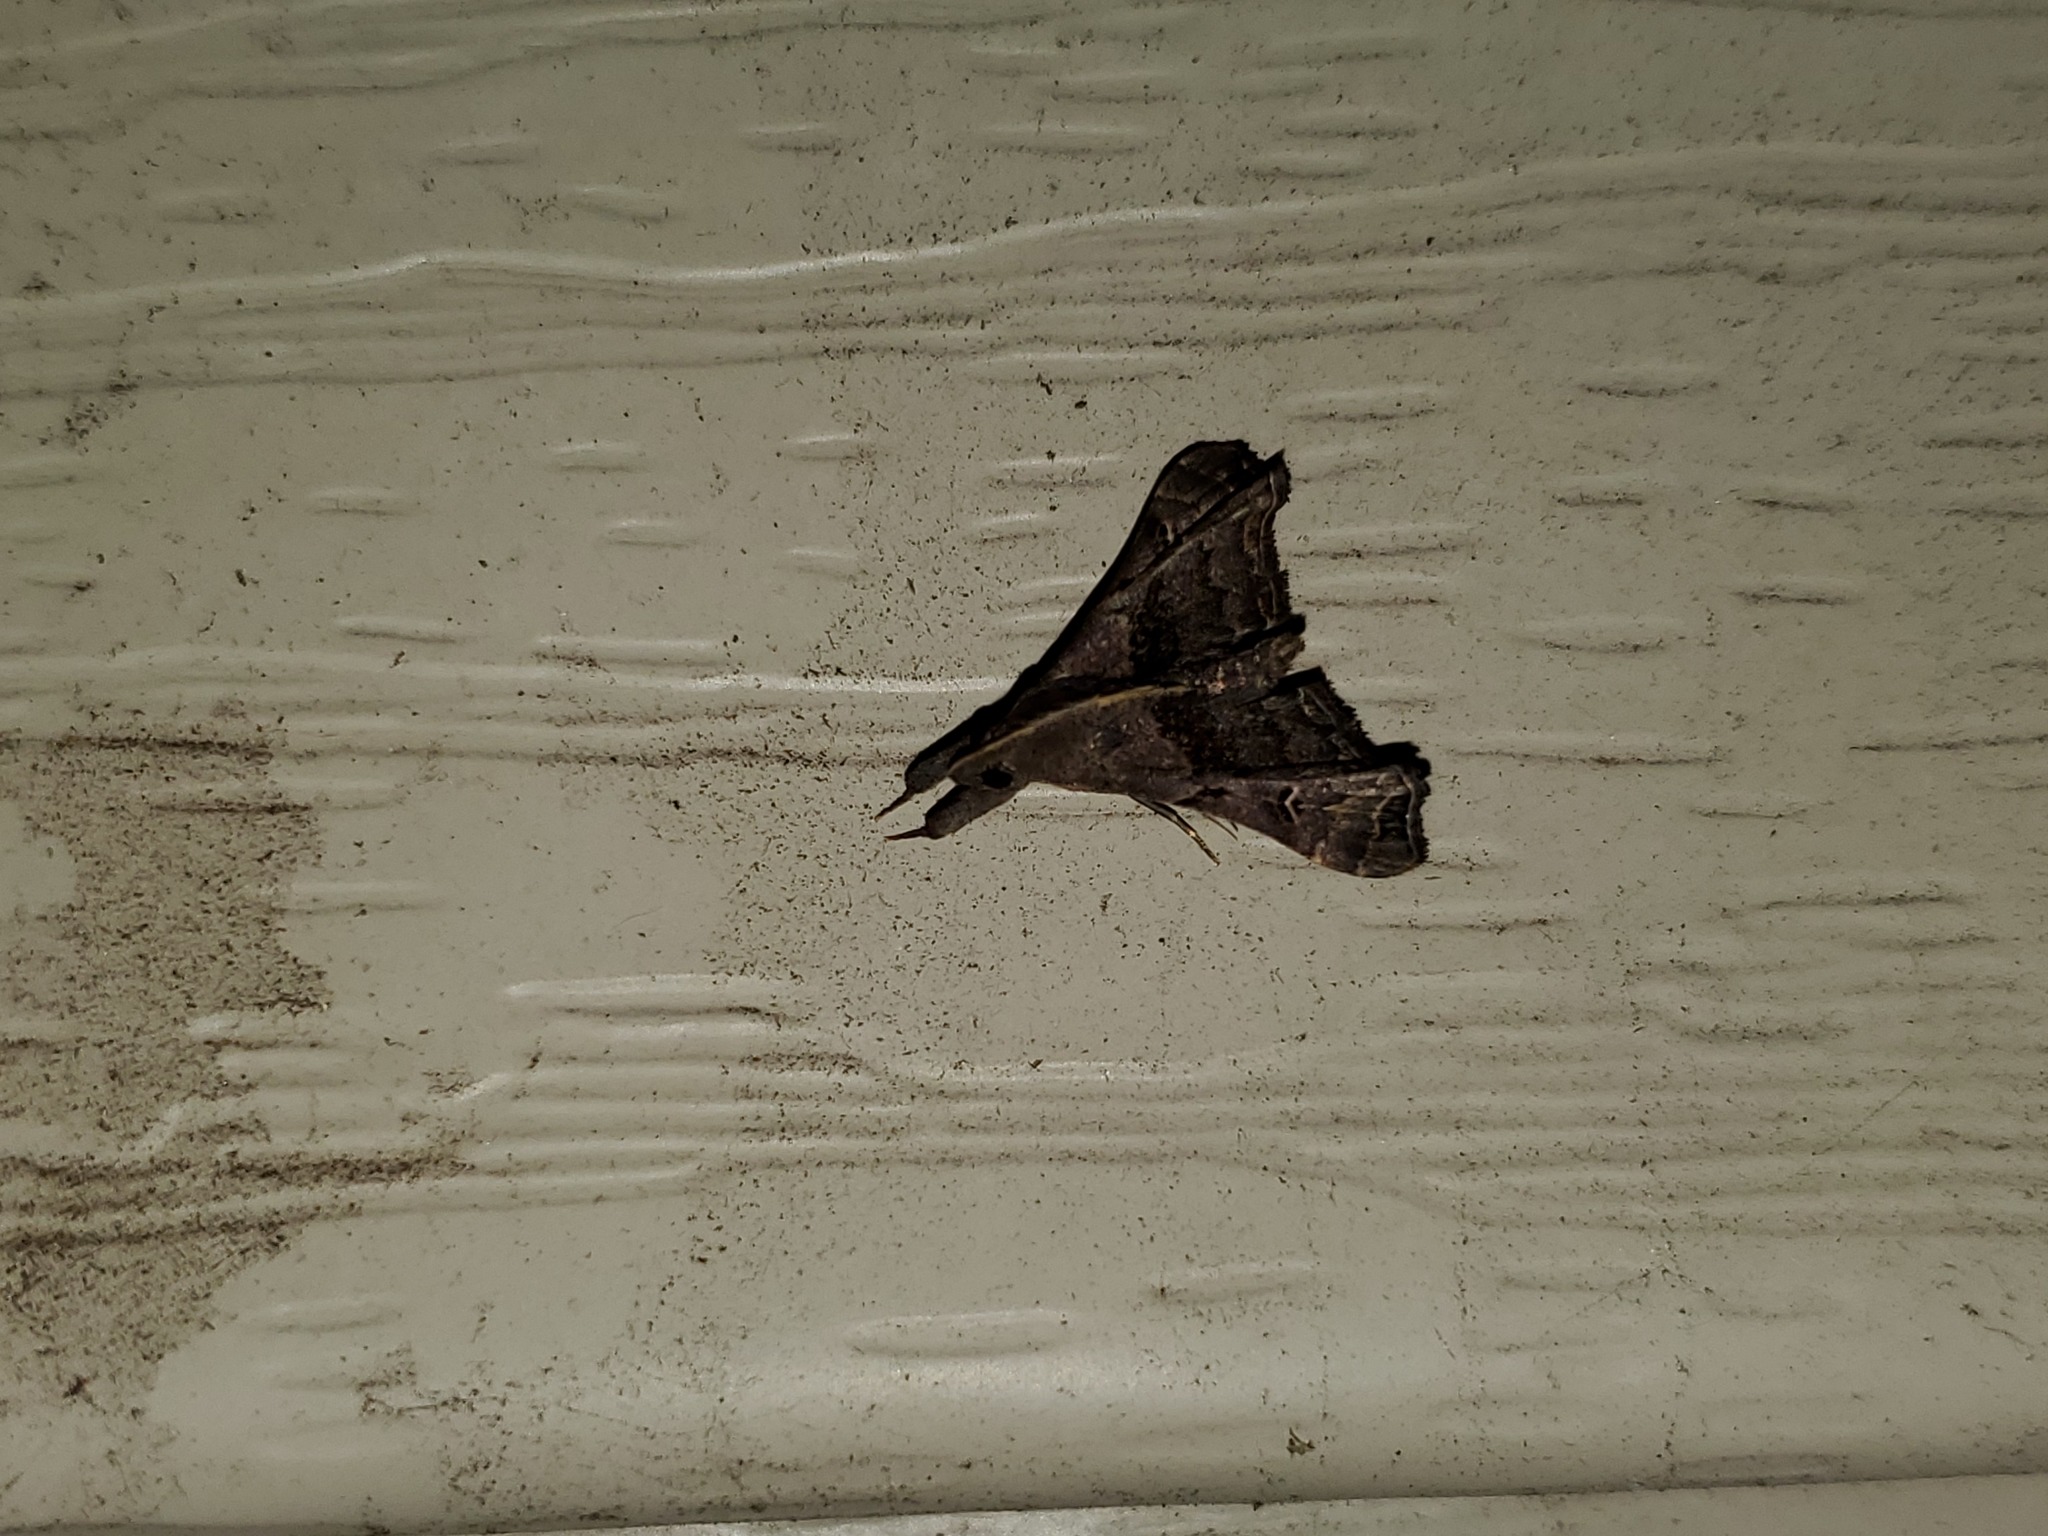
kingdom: Animalia
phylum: Arthropoda
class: Insecta
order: Lepidoptera
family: Erebidae
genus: Palthis
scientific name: Palthis asopialis
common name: Faint-spotted palthis moth
